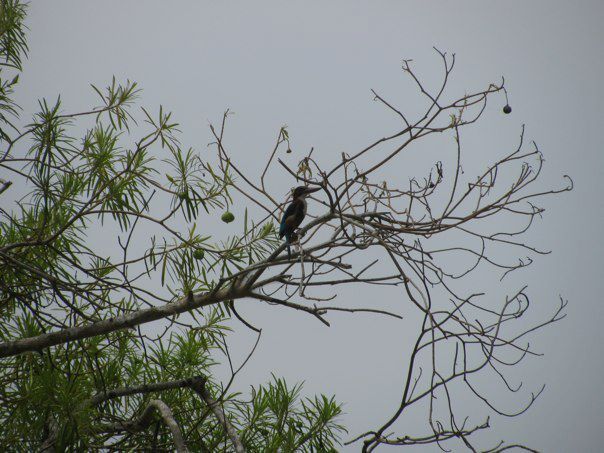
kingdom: Animalia
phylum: Chordata
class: Aves
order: Coraciiformes
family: Alcedinidae
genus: Halcyon
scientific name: Halcyon smyrnensis
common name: White-throated kingfisher
